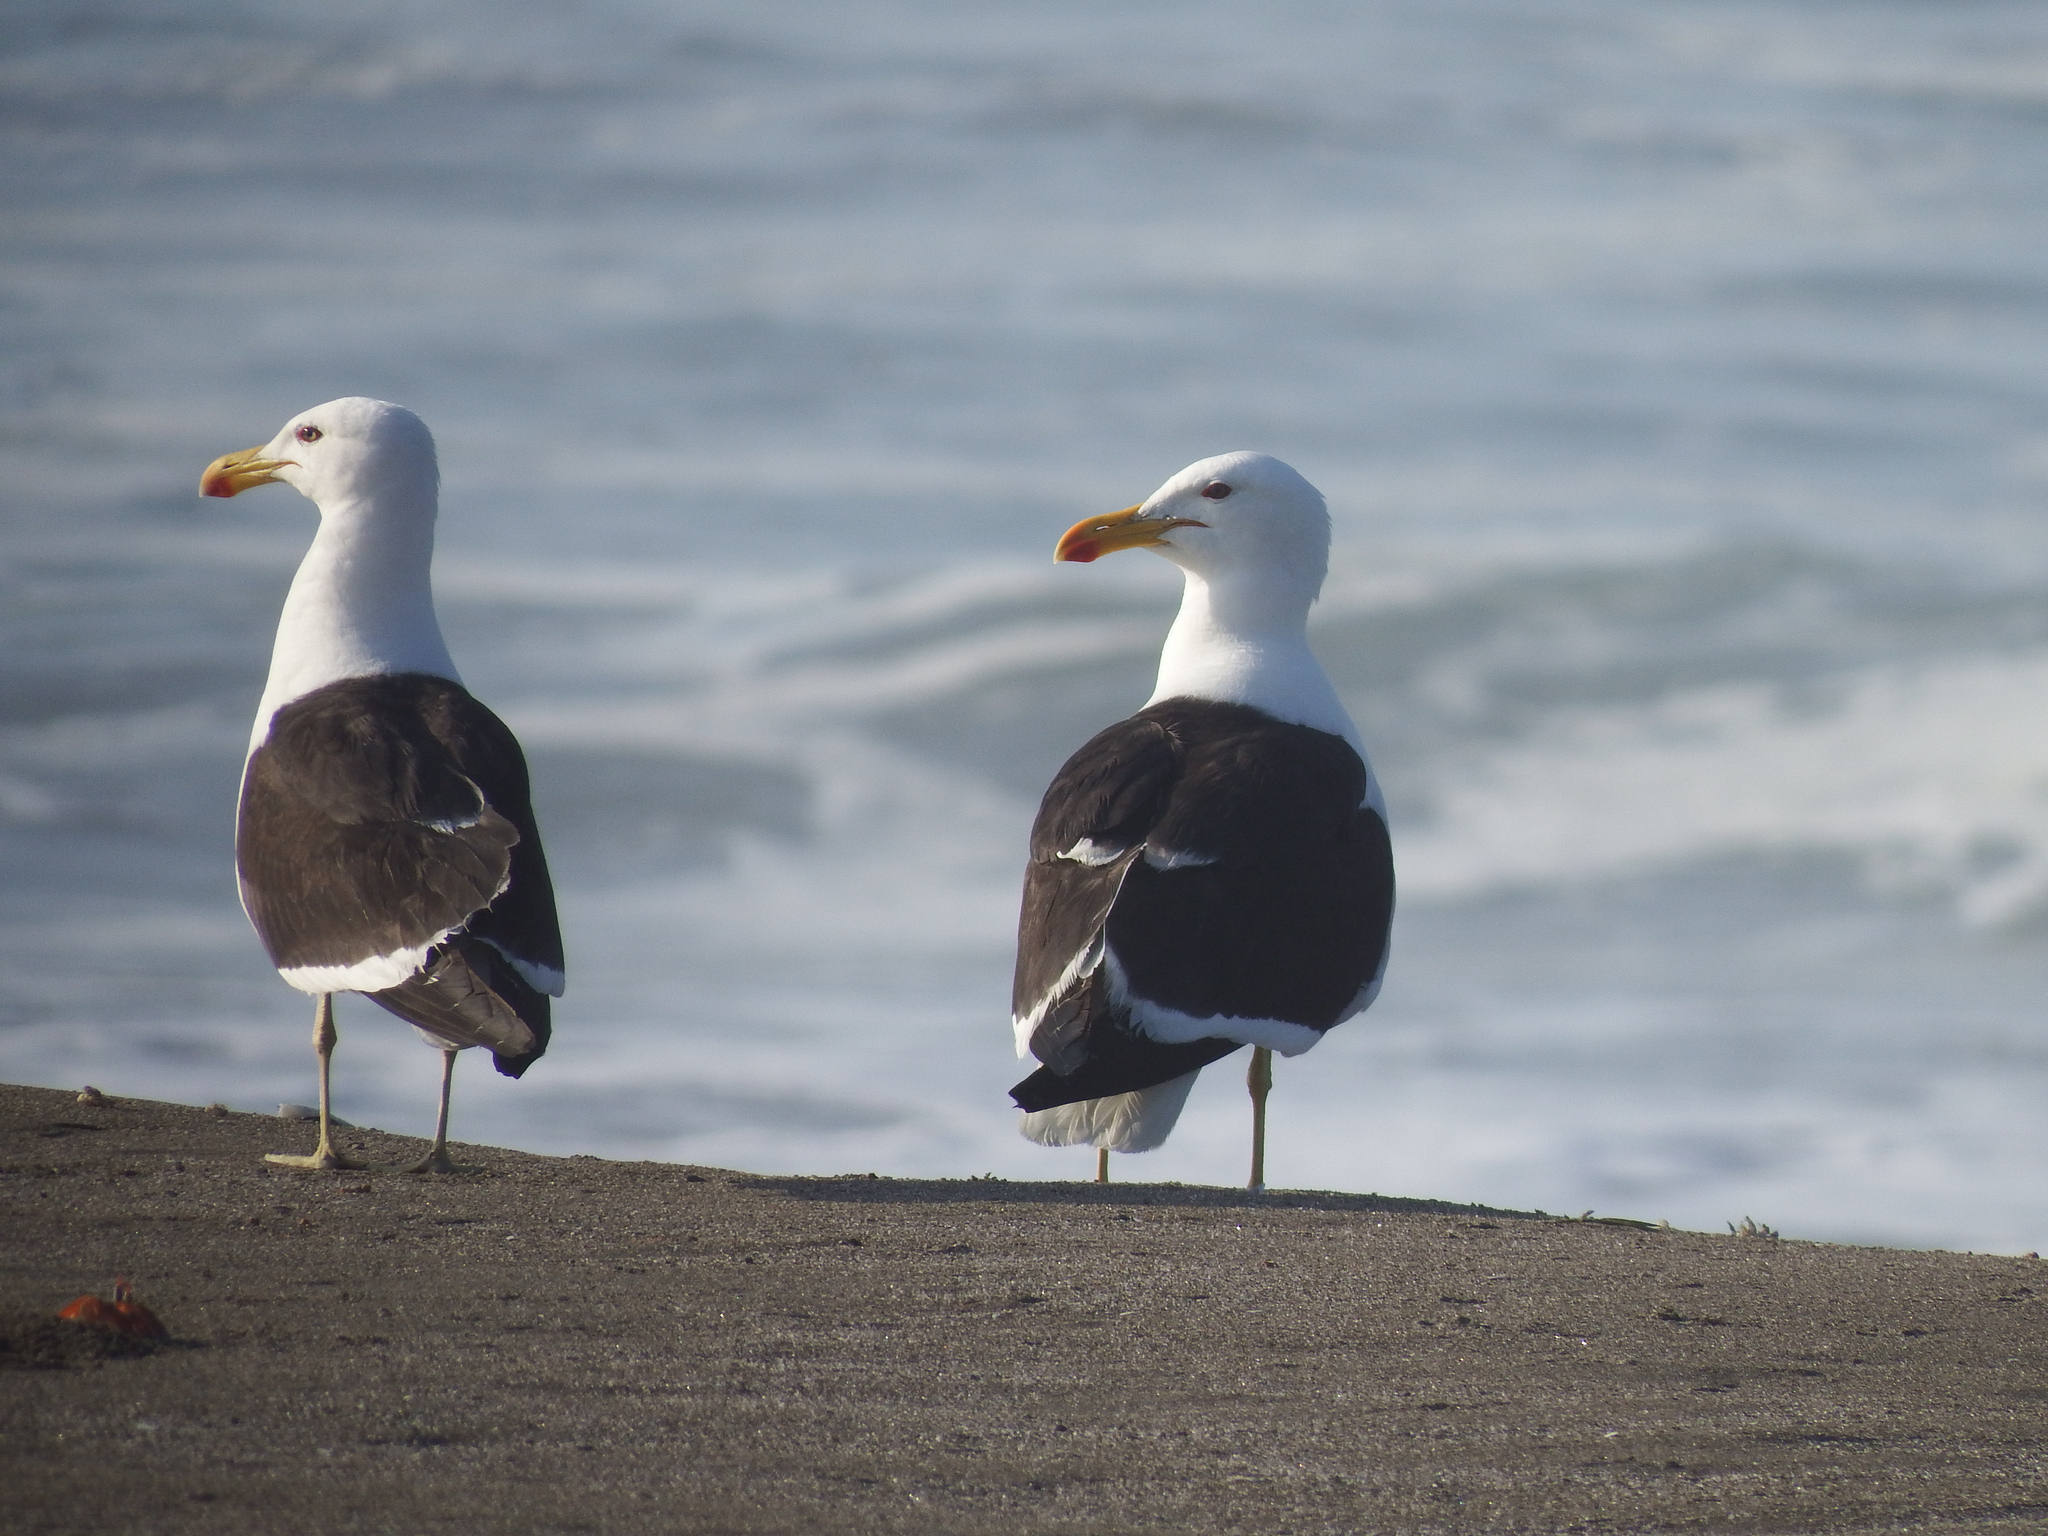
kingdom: Animalia
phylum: Chordata
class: Aves
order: Charadriiformes
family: Laridae
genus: Larus
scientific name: Larus dominicanus
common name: Kelp gull
